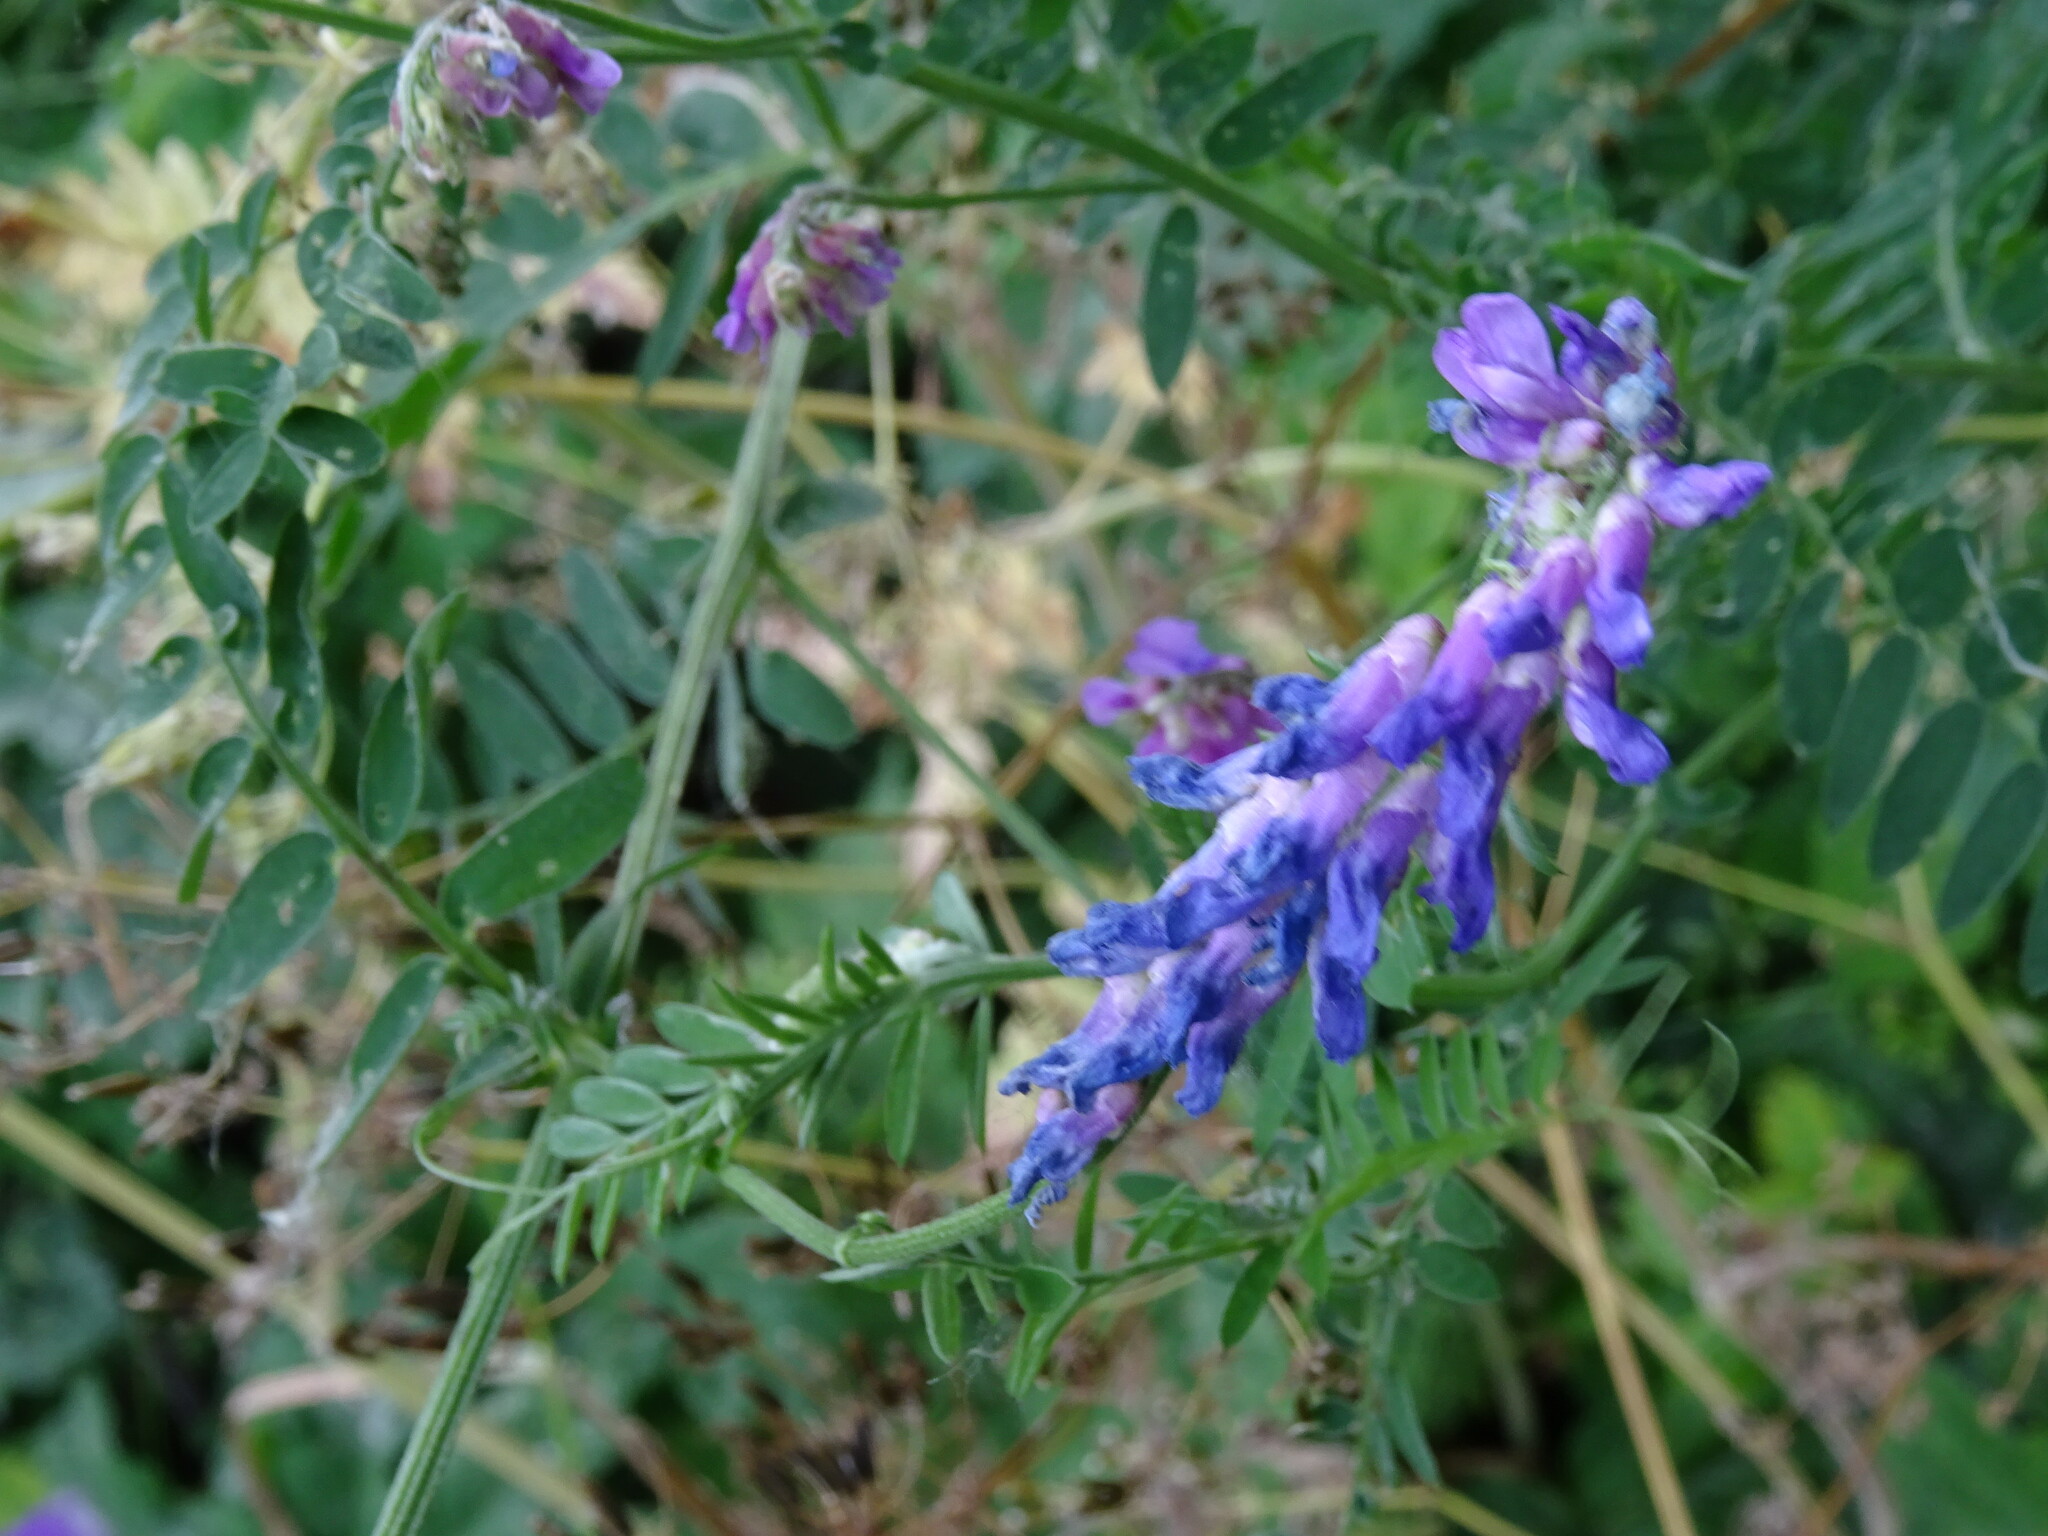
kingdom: Plantae
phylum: Tracheophyta
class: Magnoliopsida
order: Fabales
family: Fabaceae
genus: Vicia
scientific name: Vicia cracca
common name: Bird vetch
